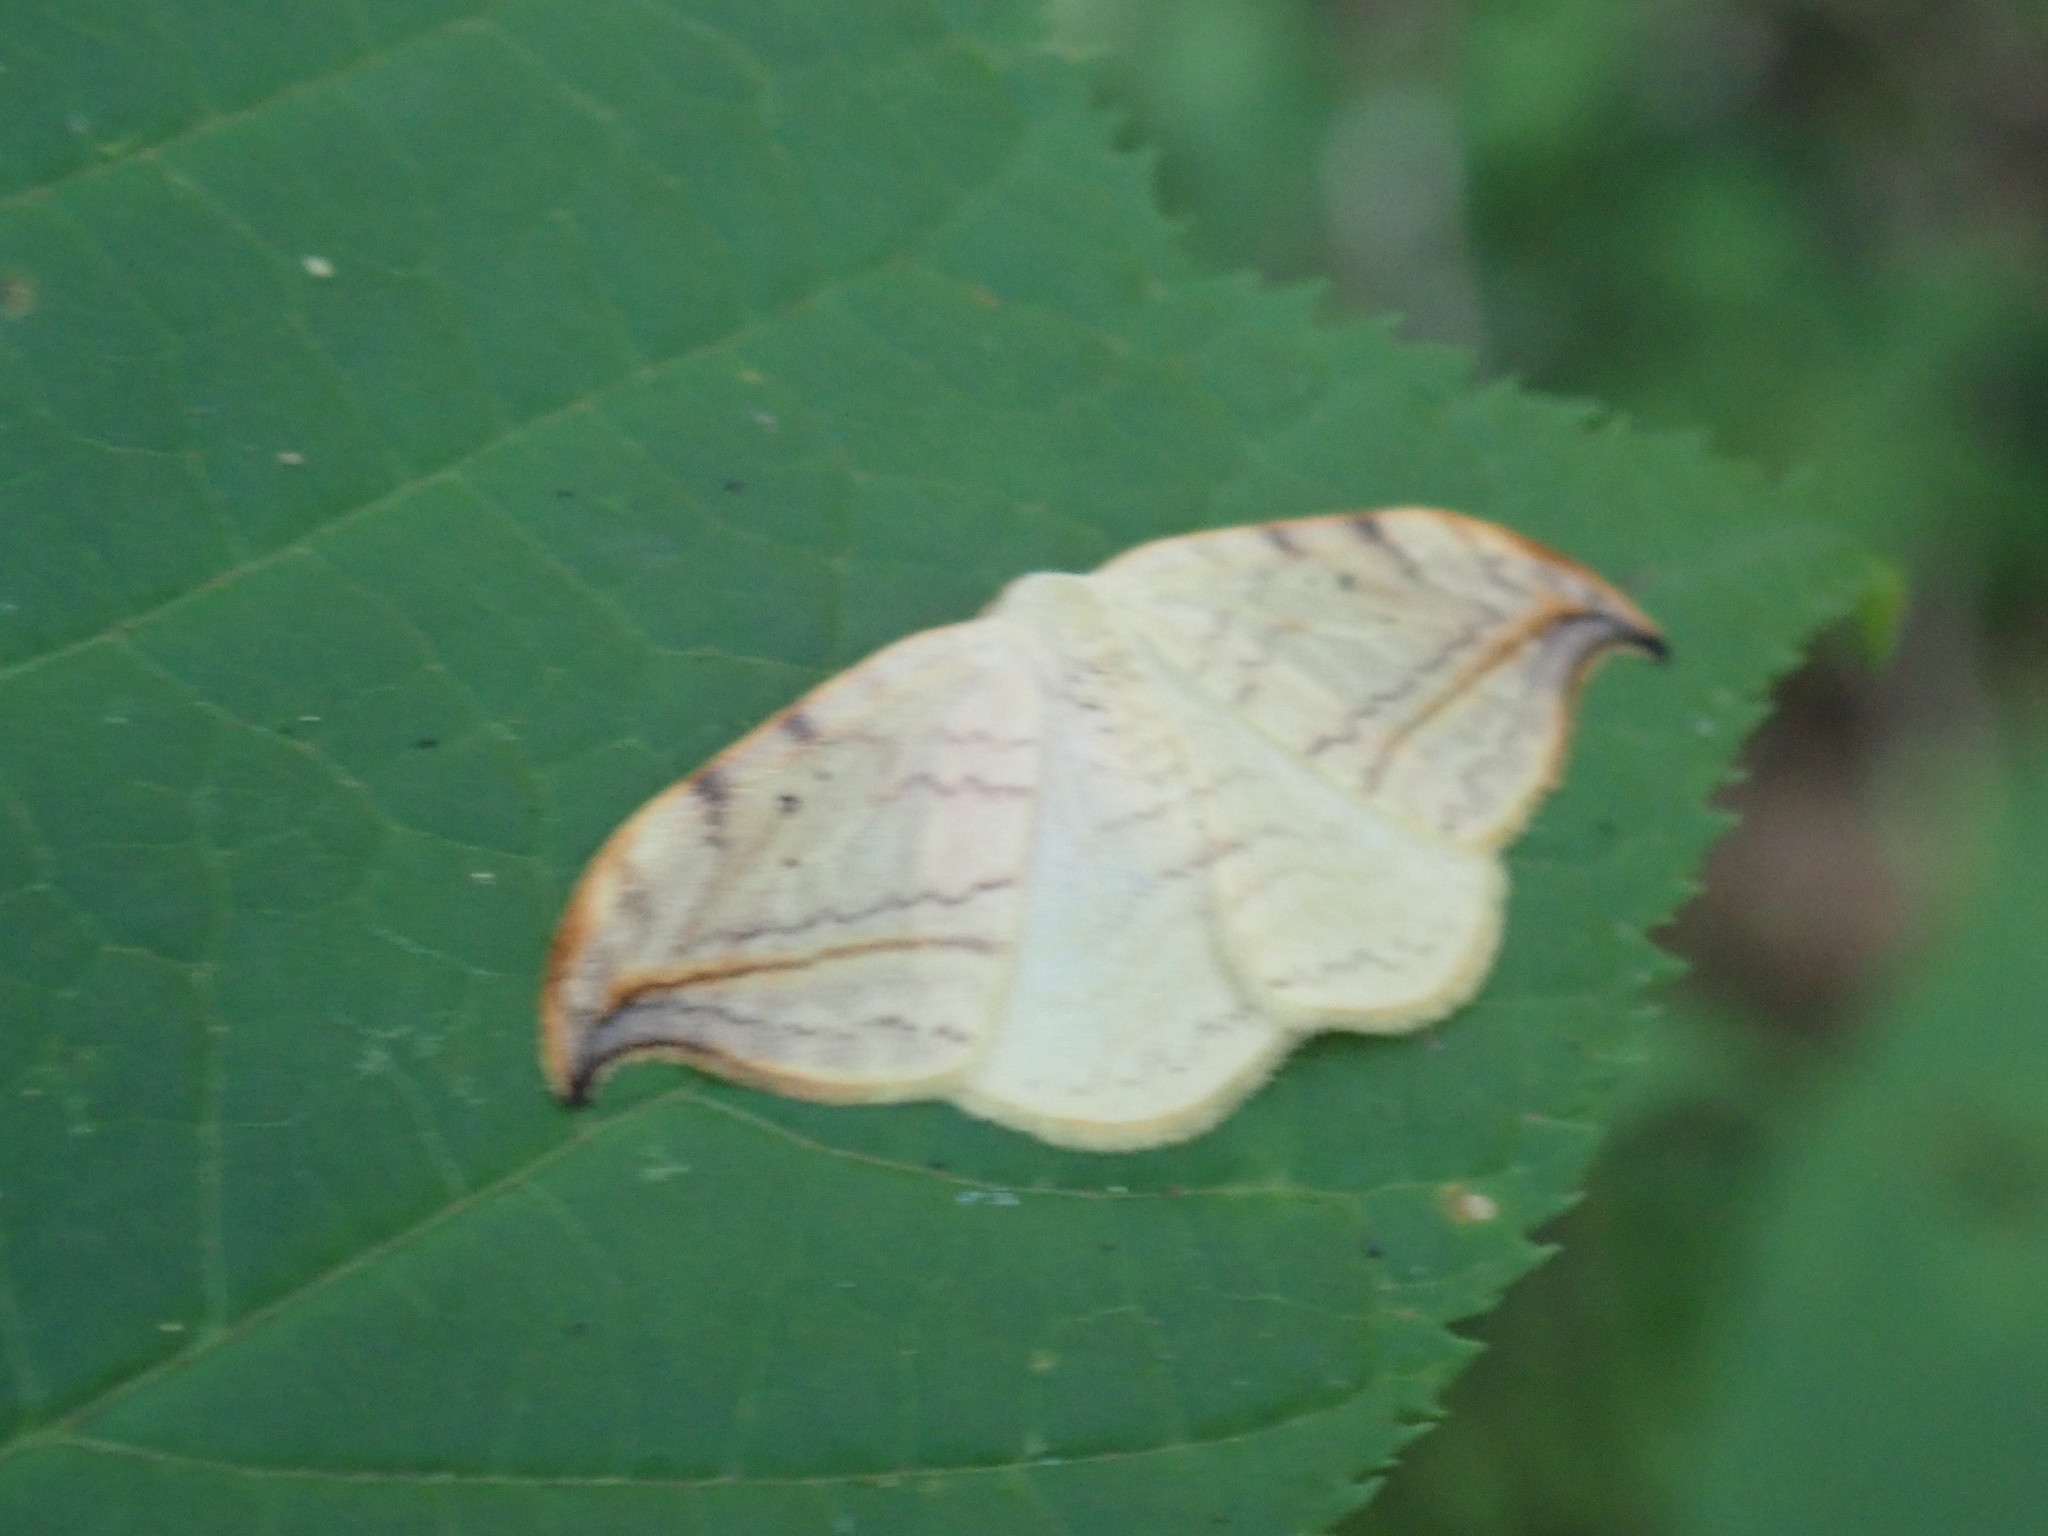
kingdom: Animalia
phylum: Arthropoda
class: Insecta
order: Lepidoptera
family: Drepanidae
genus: Drepana
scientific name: Drepana arcuata
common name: Arched hooktip moth
